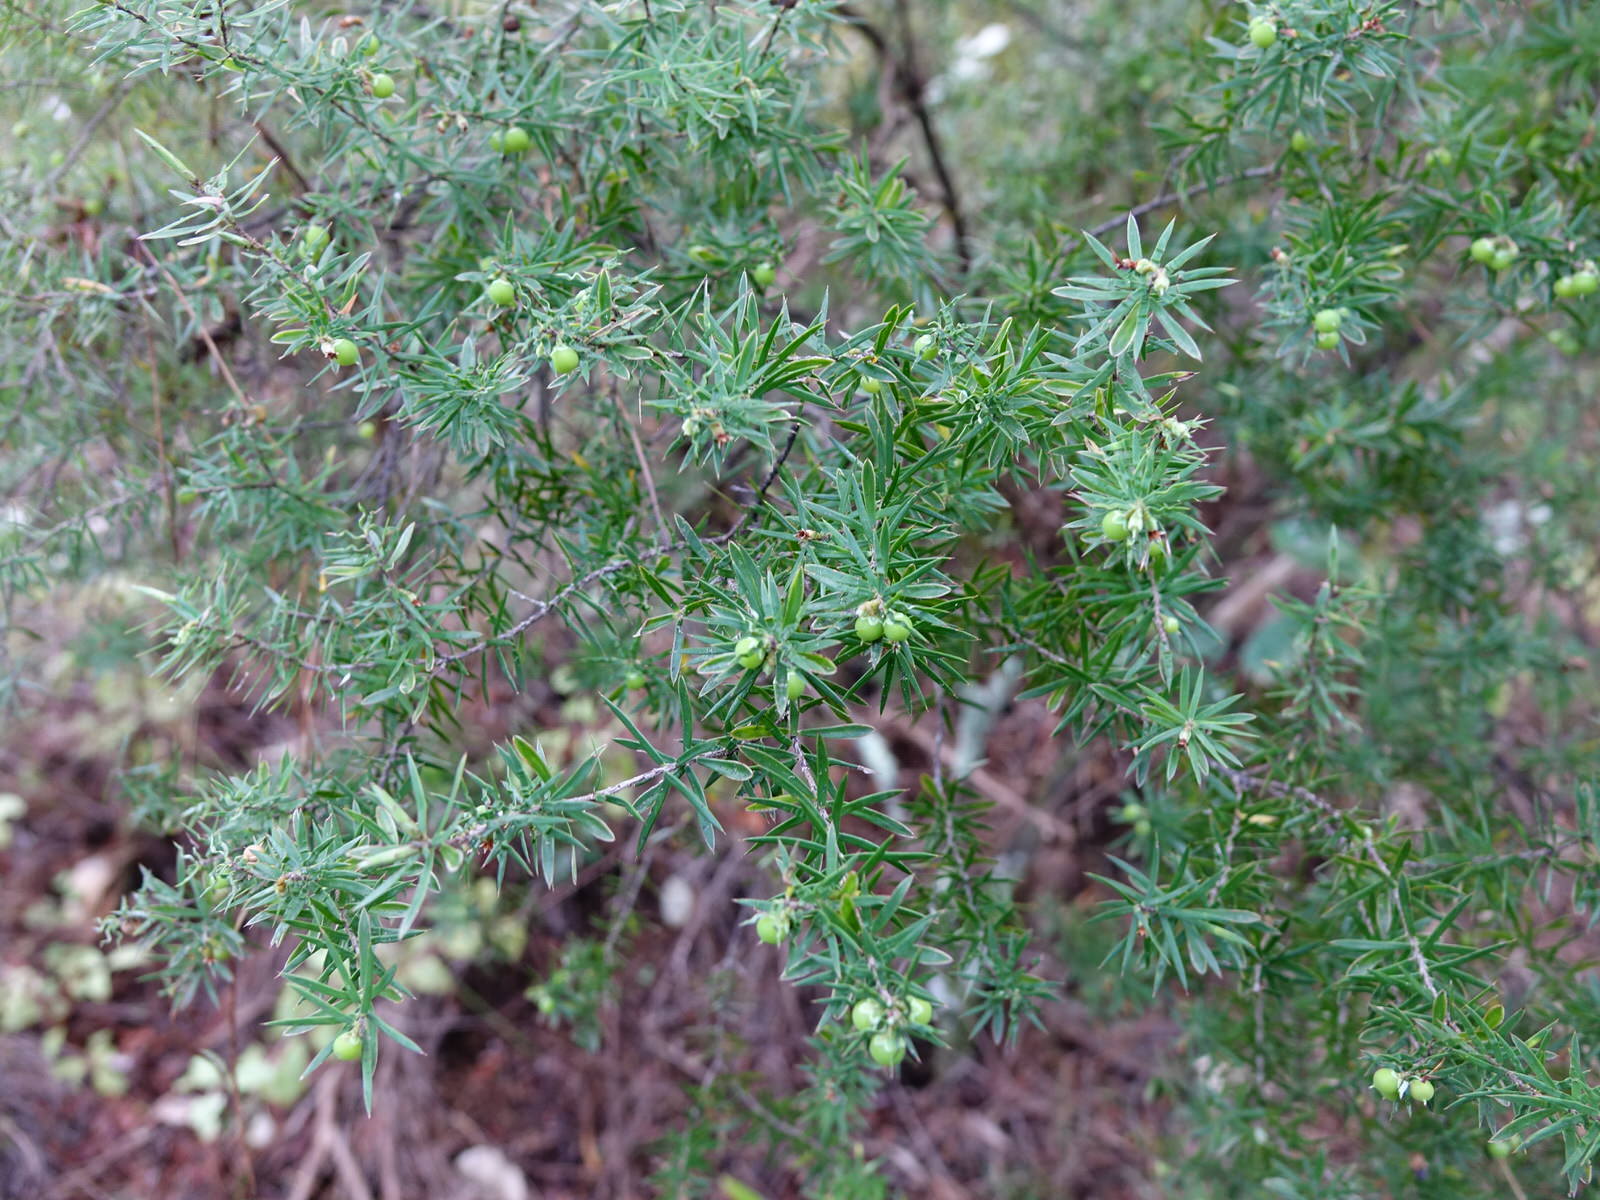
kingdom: Plantae
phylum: Tracheophyta
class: Magnoliopsida
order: Ericales
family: Ericaceae
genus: Leptecophylla
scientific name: Leptecophylla juniperina
